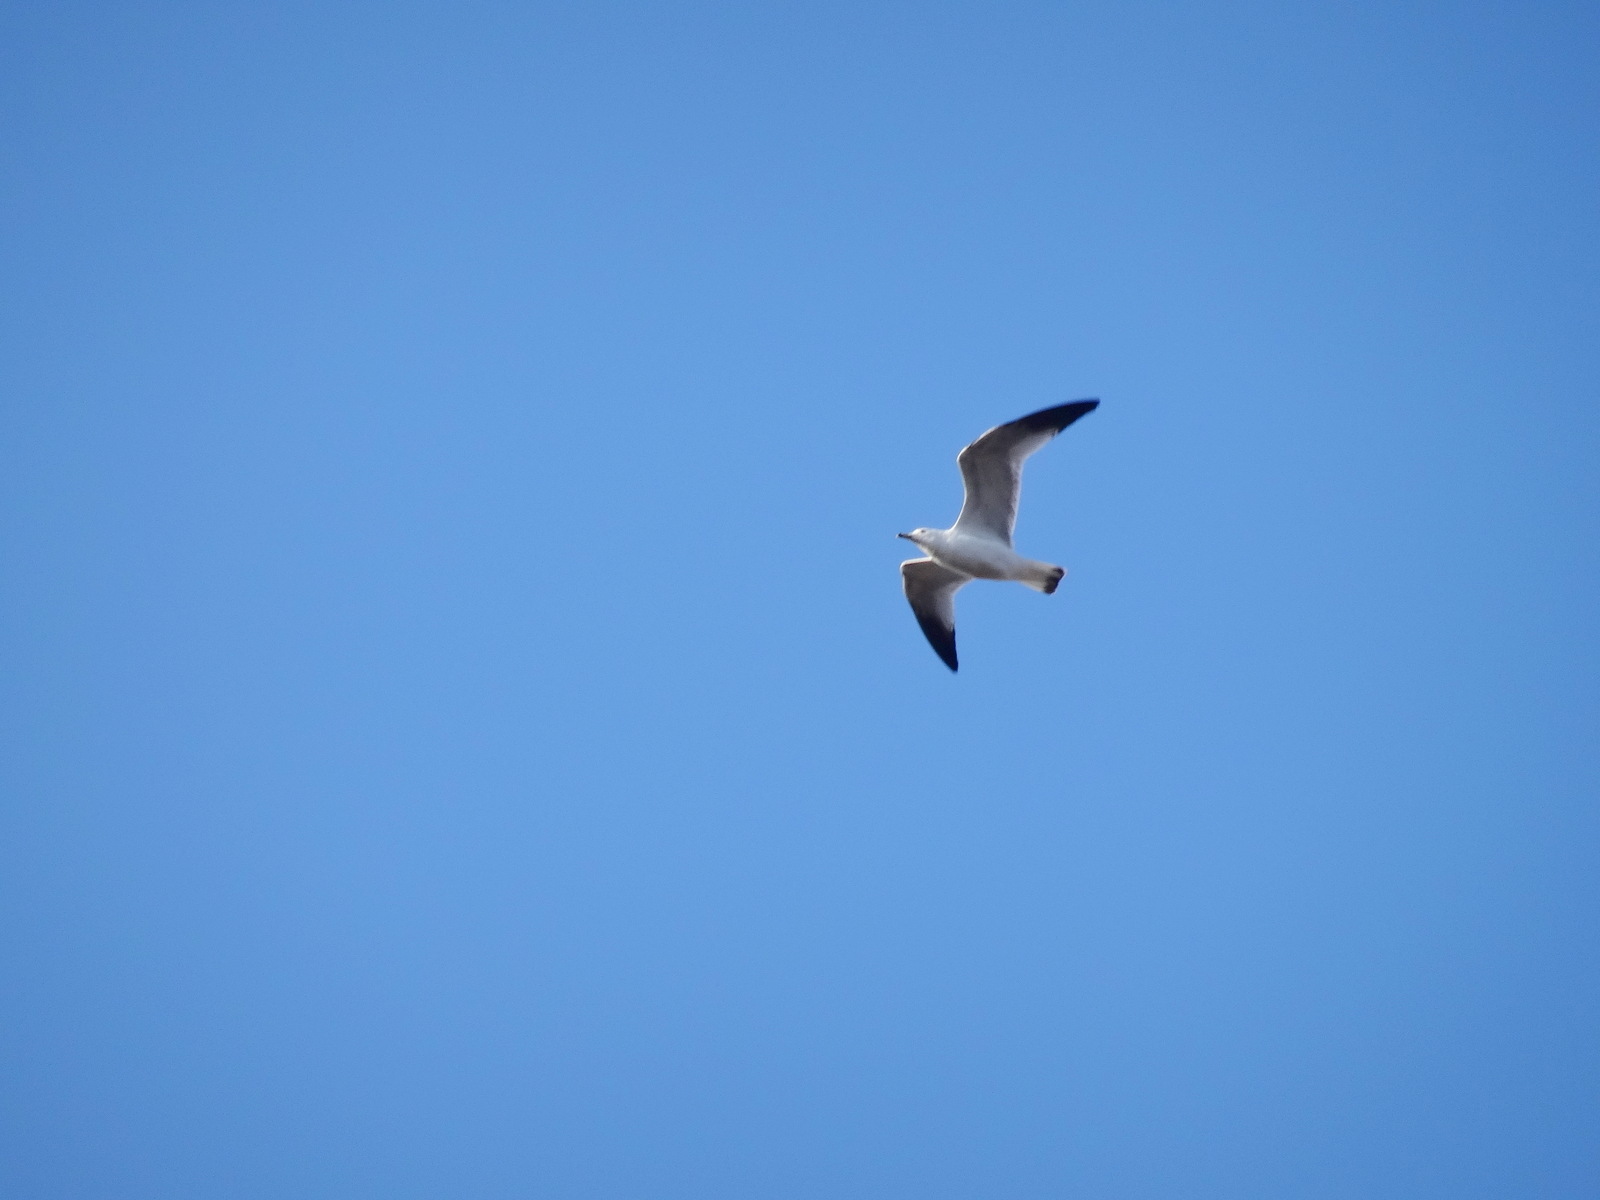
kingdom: Animalia
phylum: Chordata
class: Aves
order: Charadriiformes
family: Laridae
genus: Larus
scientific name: Larus delawarensis
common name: Ring-billed gull
